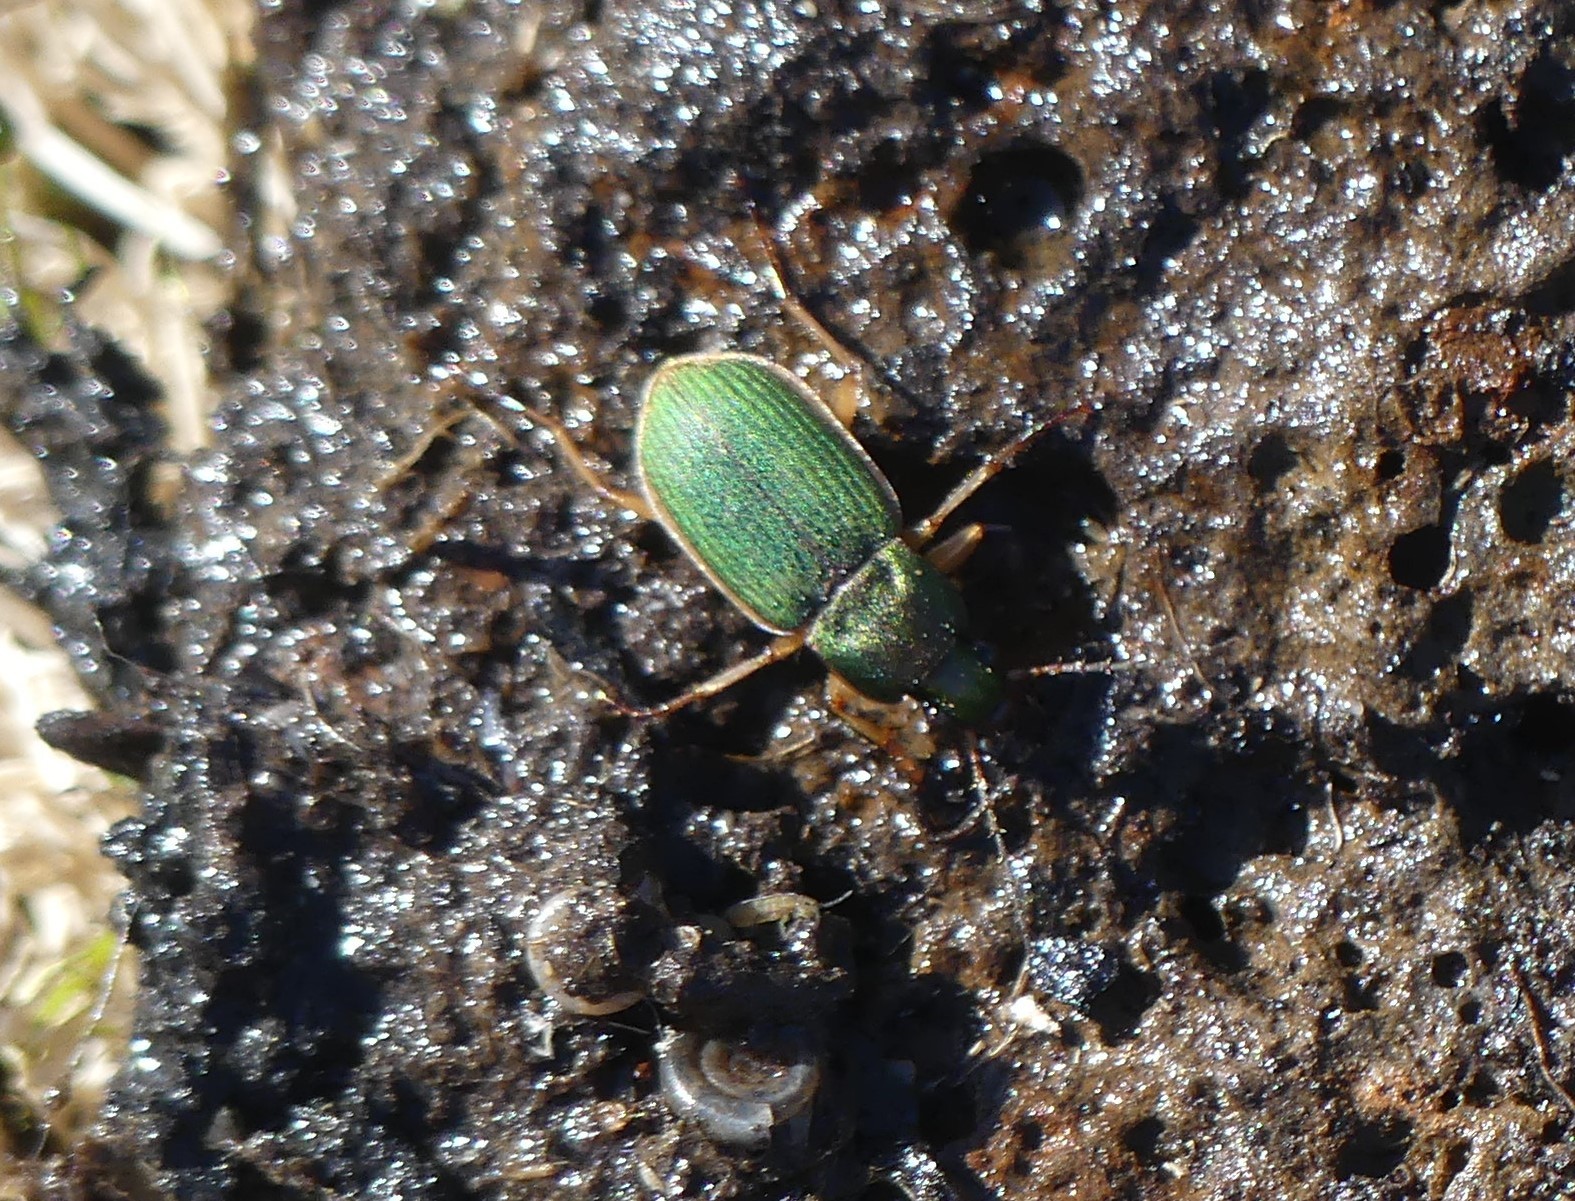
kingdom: Animalia
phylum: Arthropoda
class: Insecta
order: Coleoptera
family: Carabidae
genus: Chlaenius
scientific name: Chlaenius olivieri
